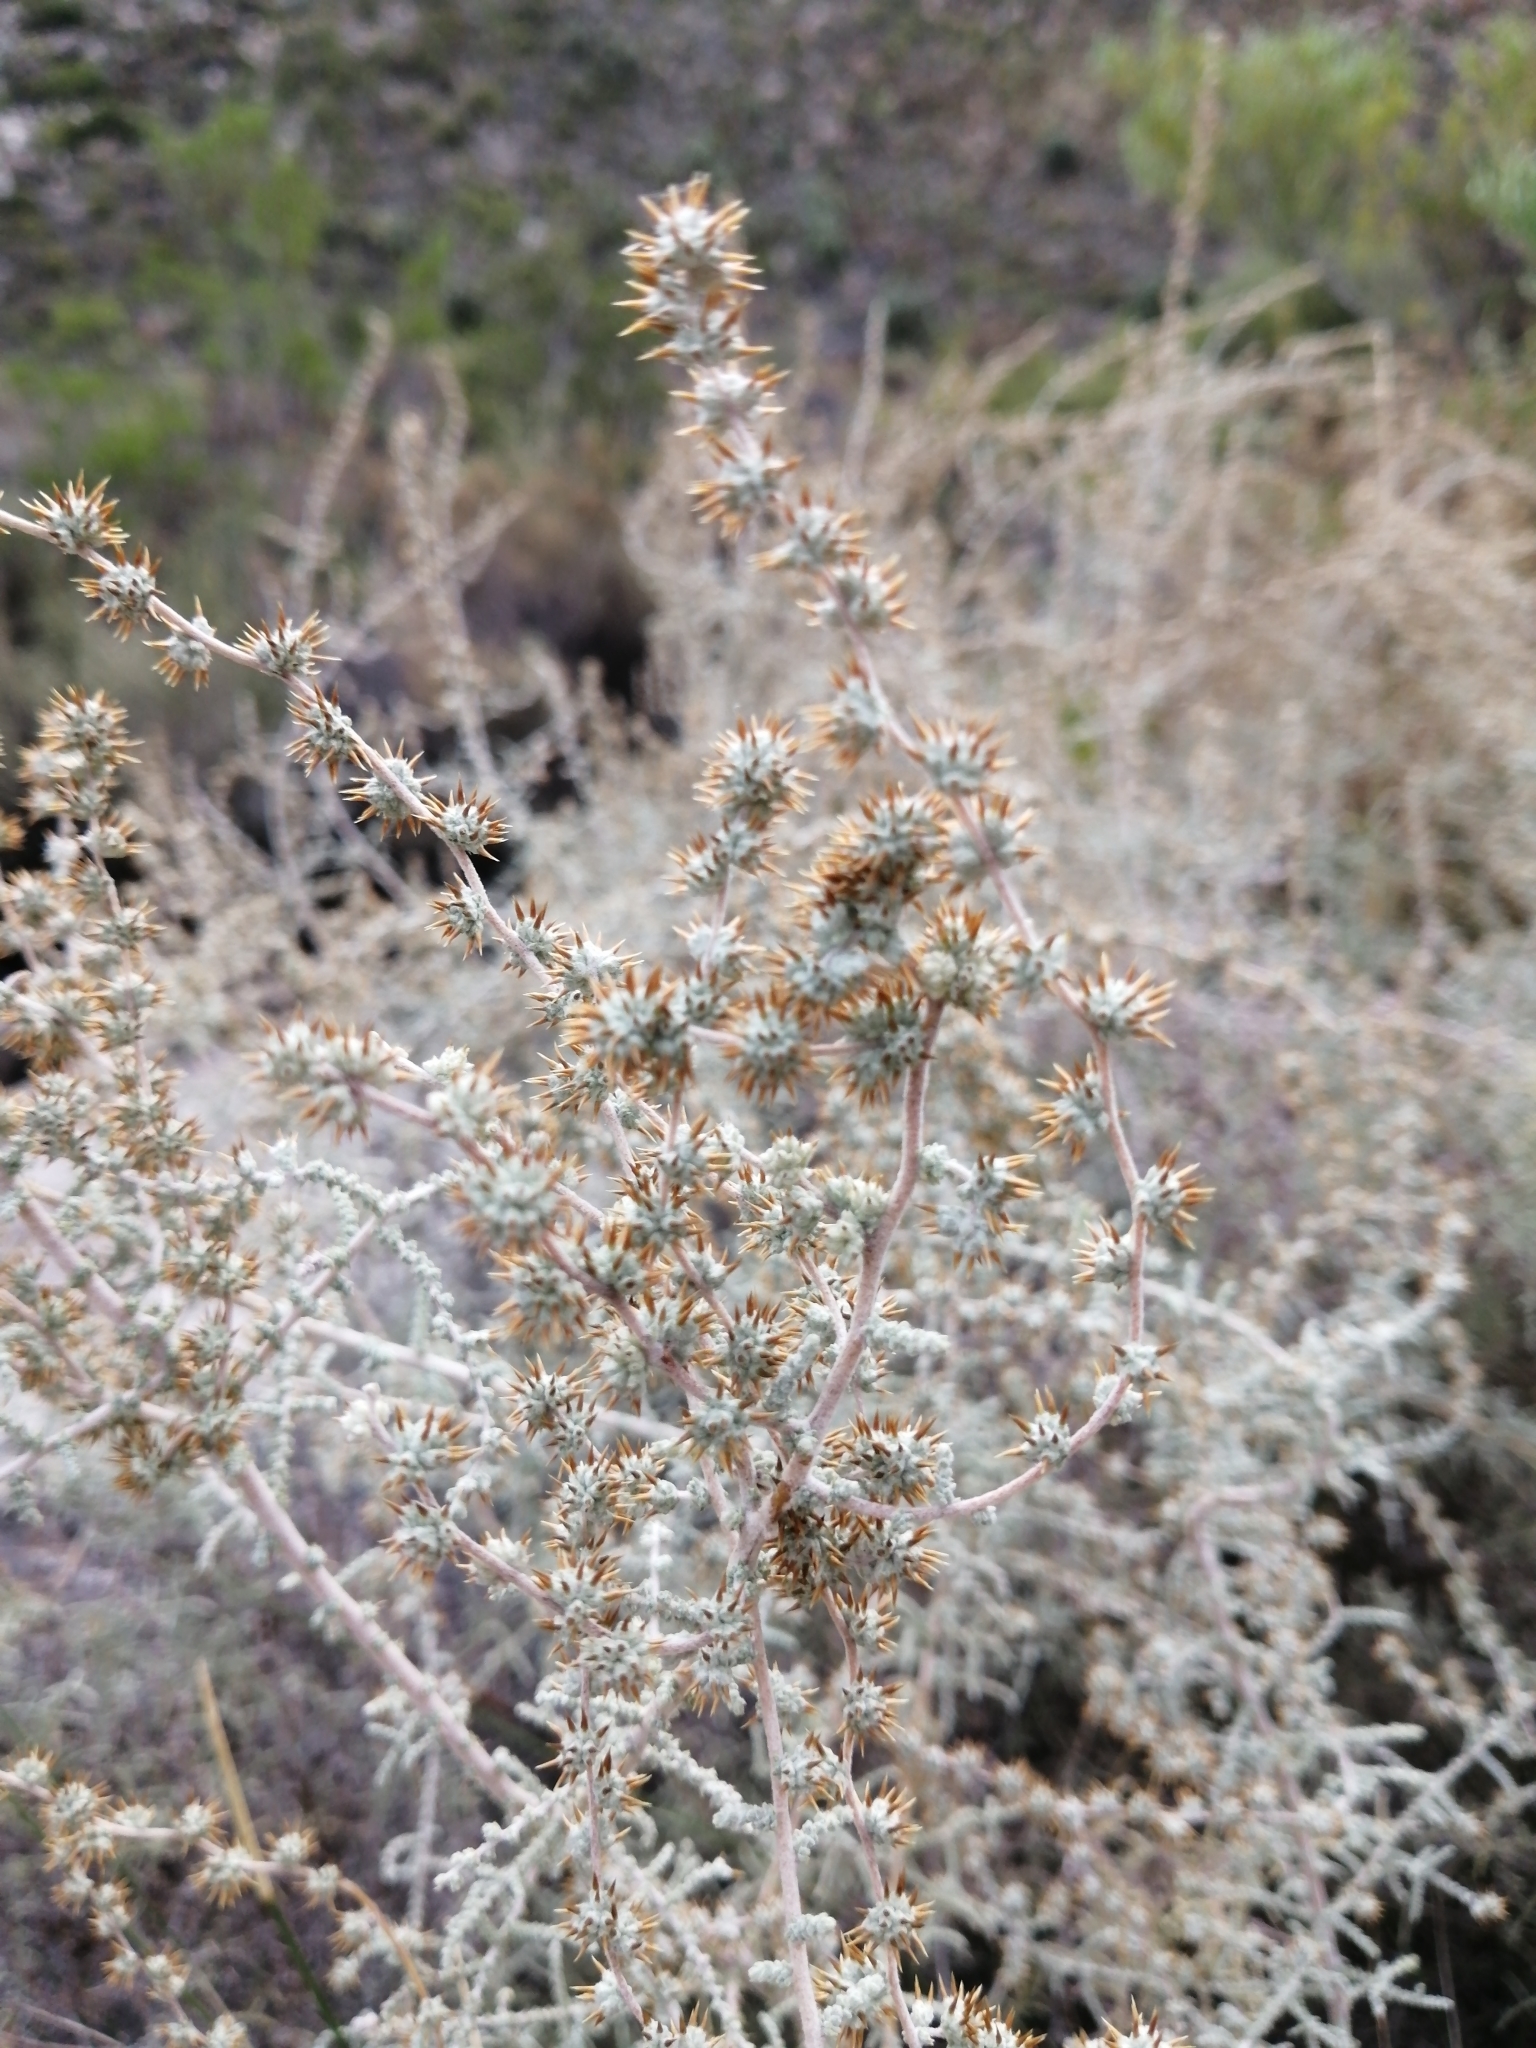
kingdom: Plantae
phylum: Tracheophyta
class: Magnoliopsida
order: Asterales
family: Asteraceae
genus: Seriphium
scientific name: Seriphium plumosum
